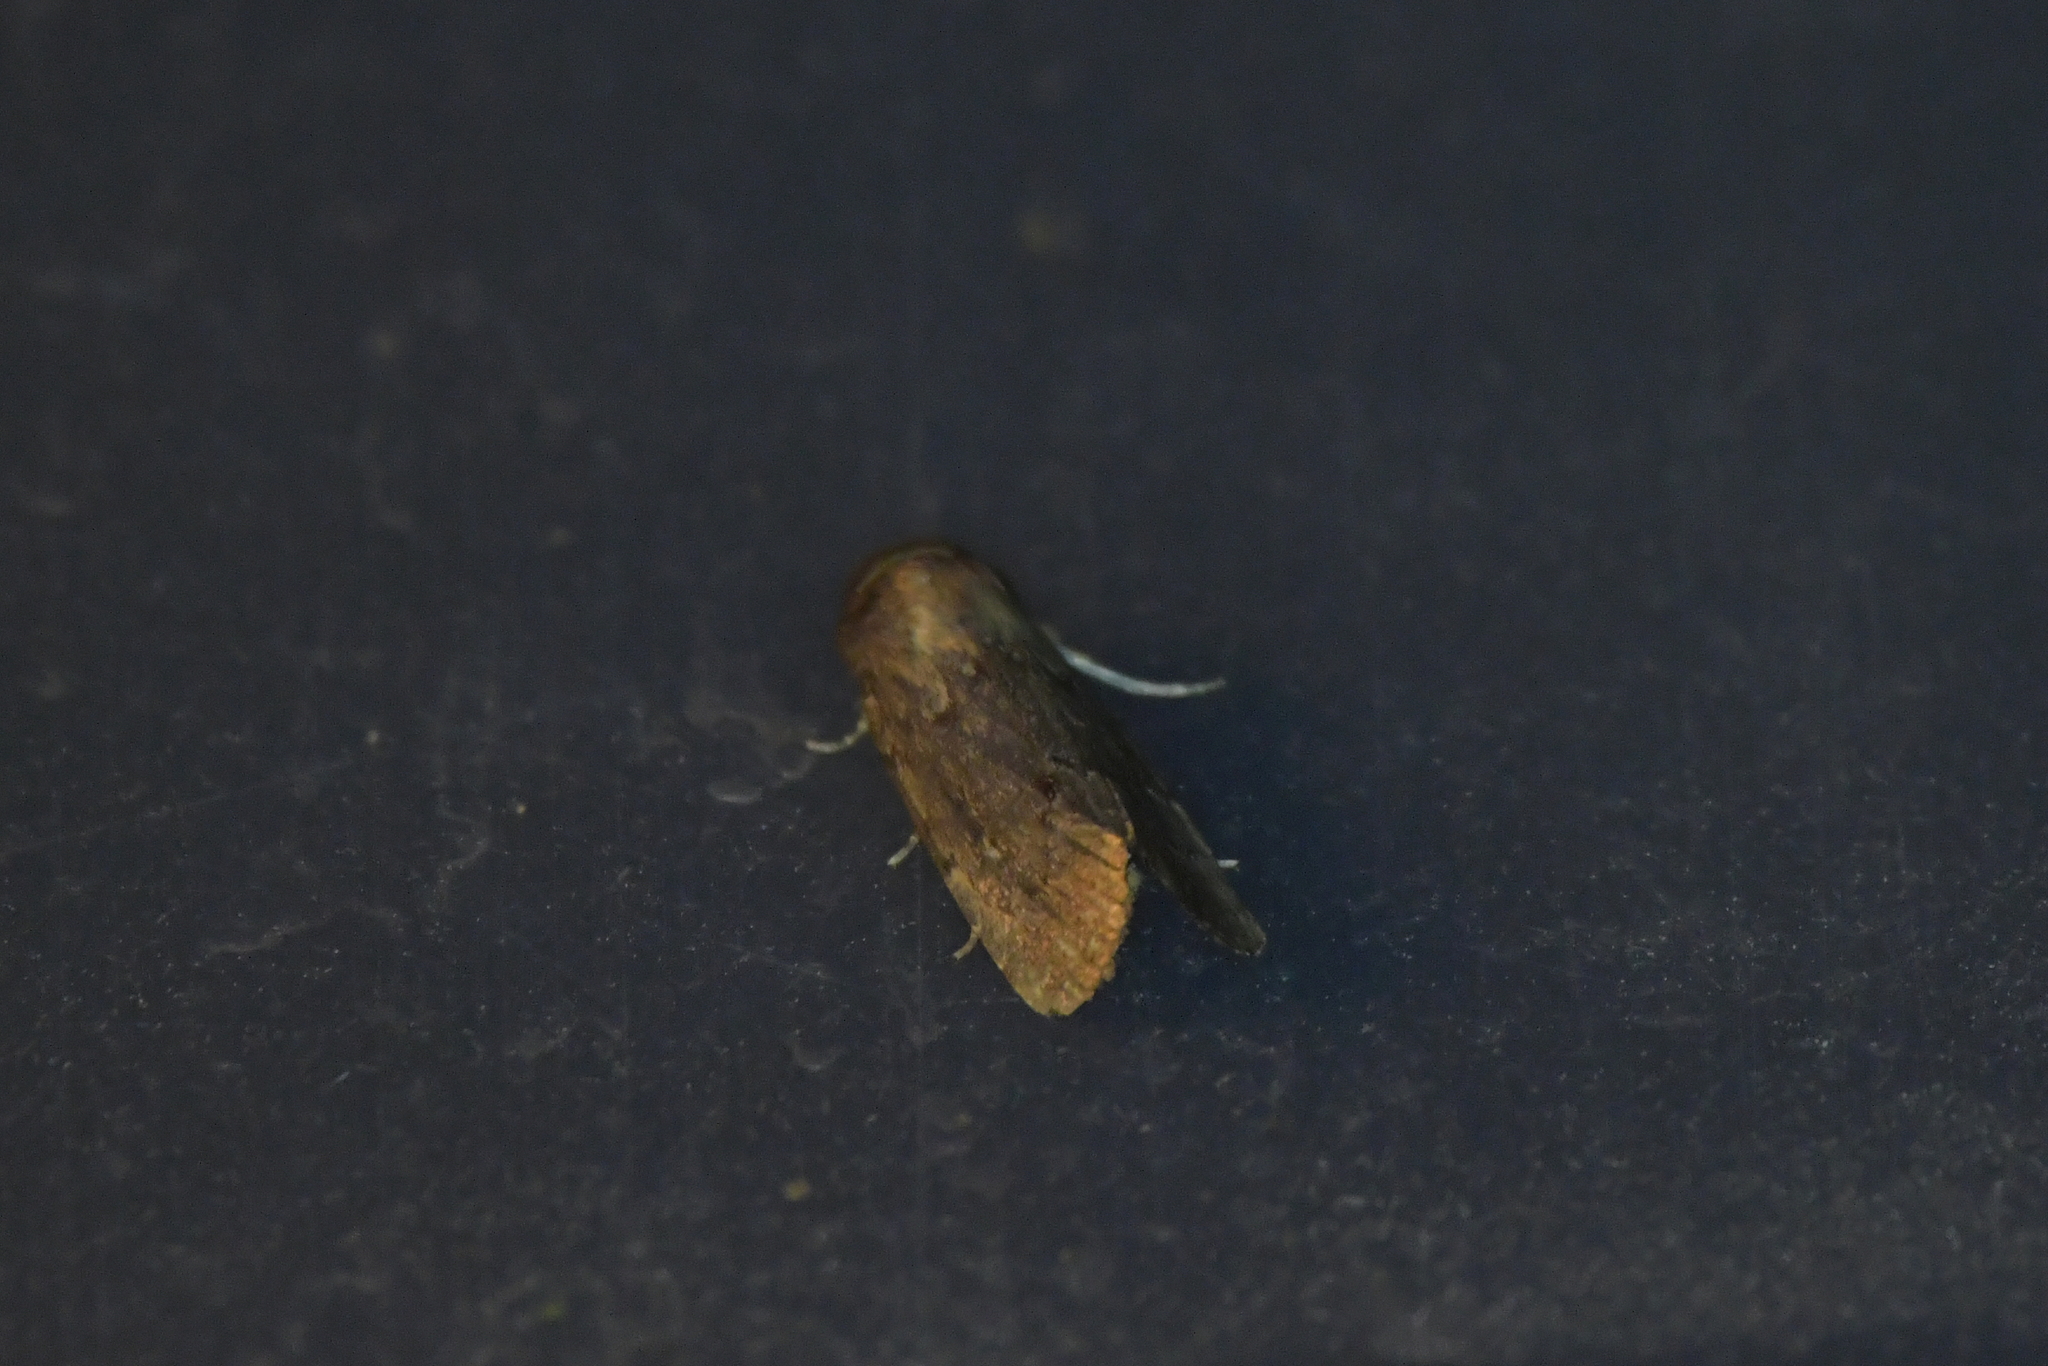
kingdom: Animalia
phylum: Arthropoda
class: Insecta
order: Lepidoptera
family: Noctuidae
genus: Athetis
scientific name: Athetis tenuis
